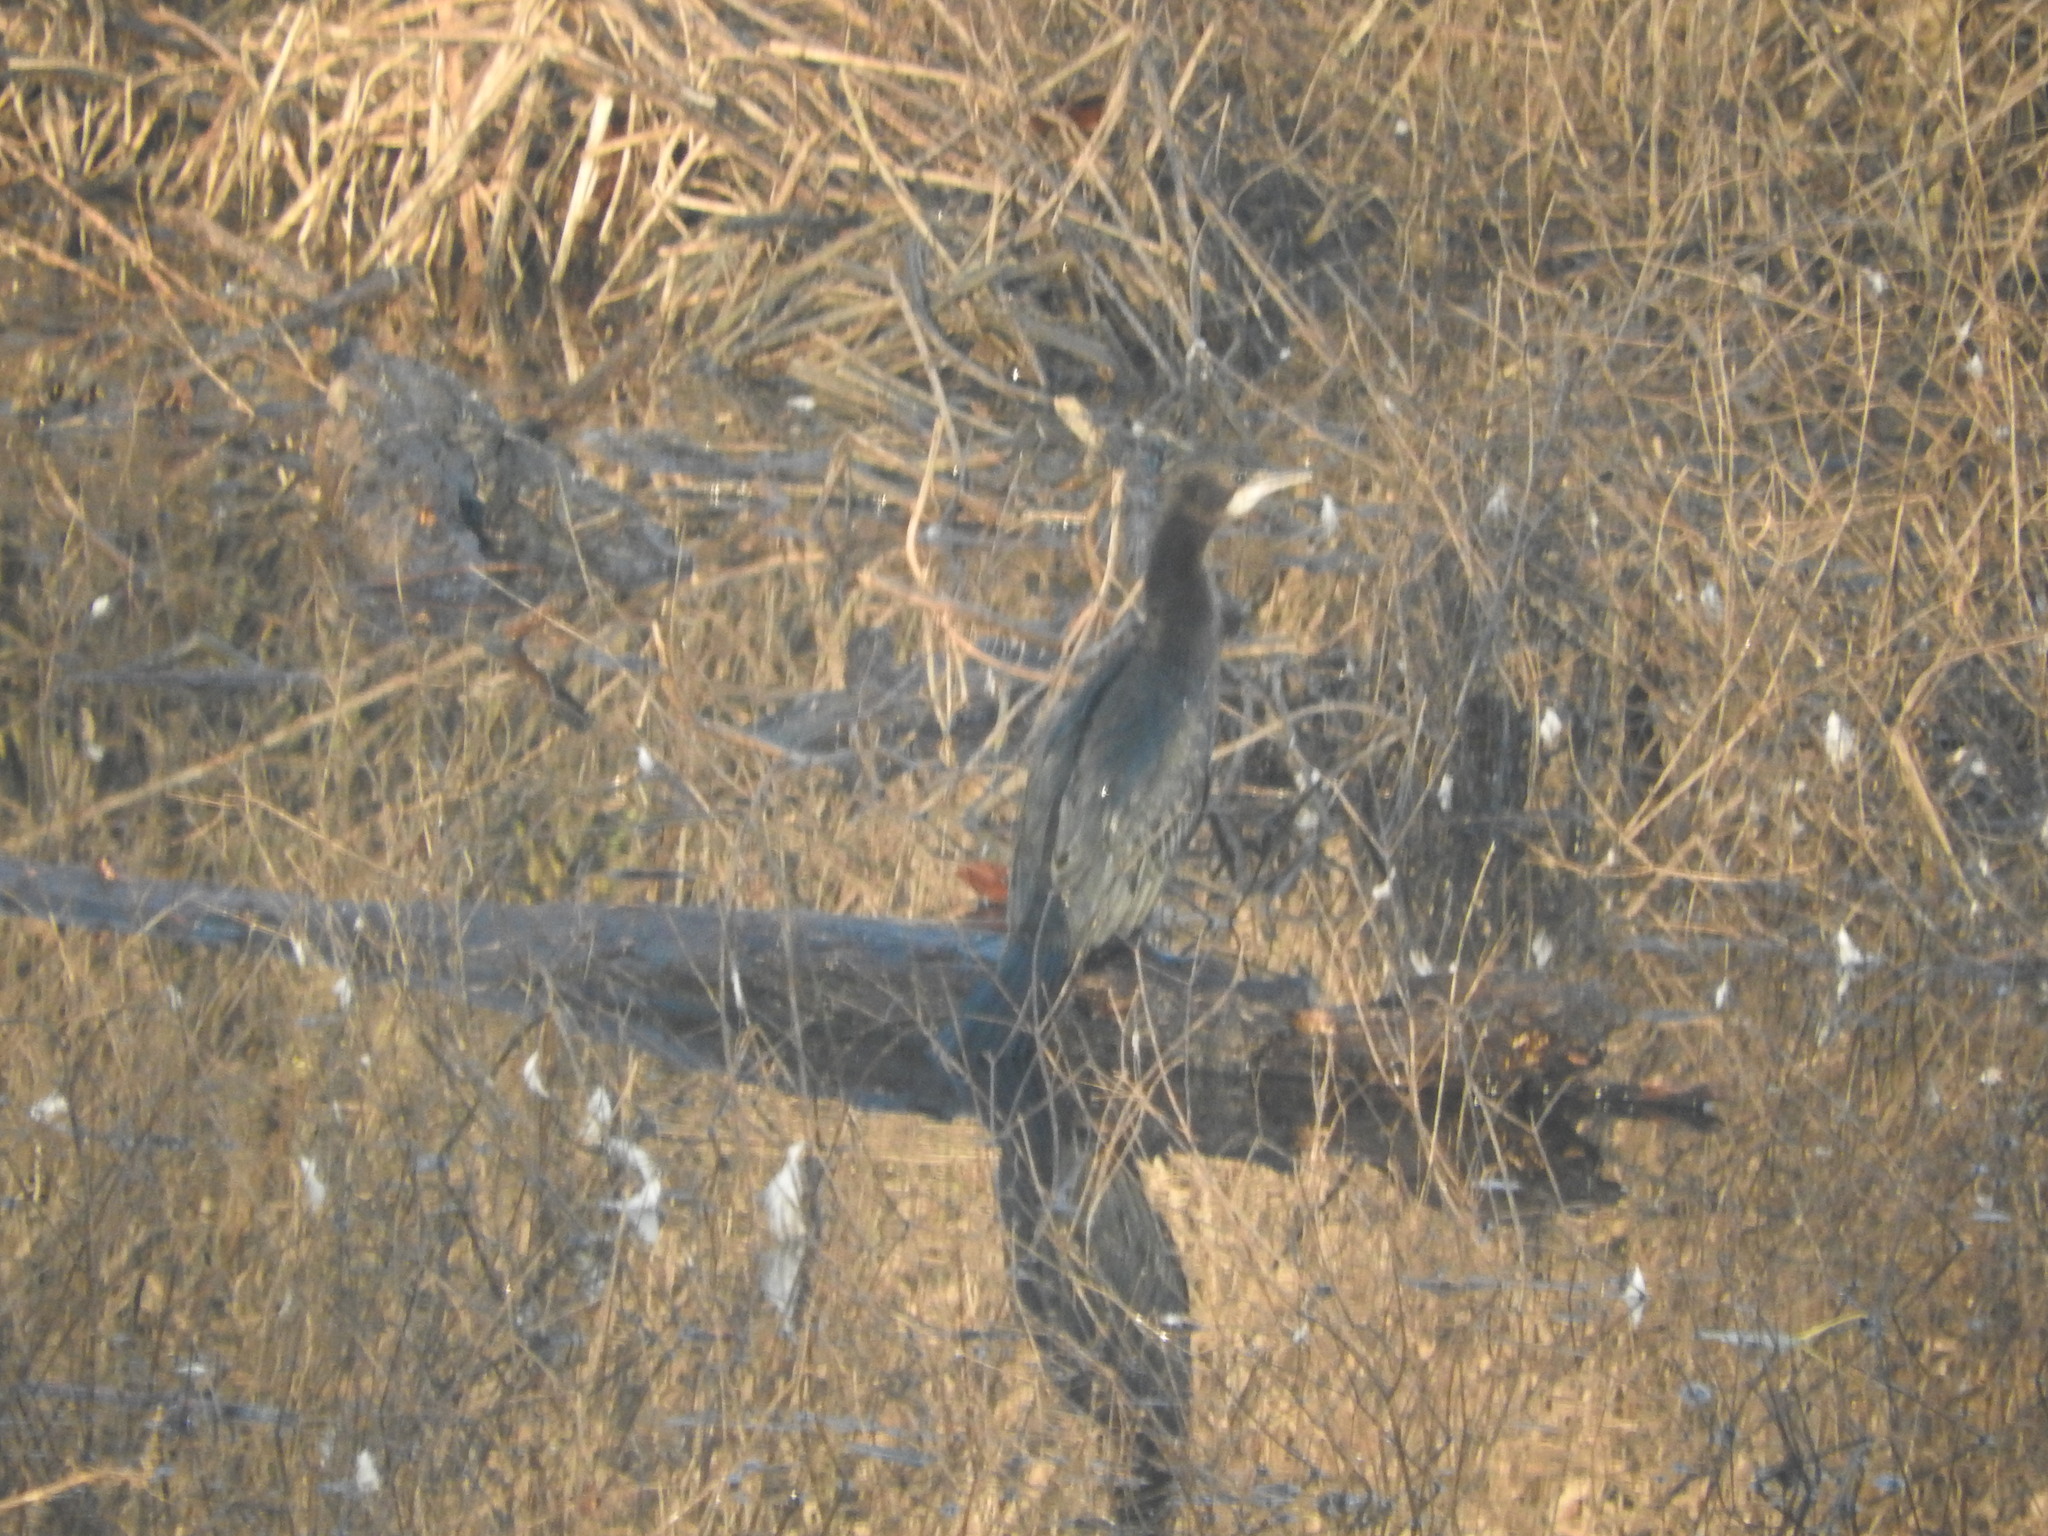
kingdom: Animalia
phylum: Chordata
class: Aves
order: Suliformes
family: Phalacrocoracidae
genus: Microcarbo
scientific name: Microcarbo pygmaeus
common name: Pygmy cormorant
